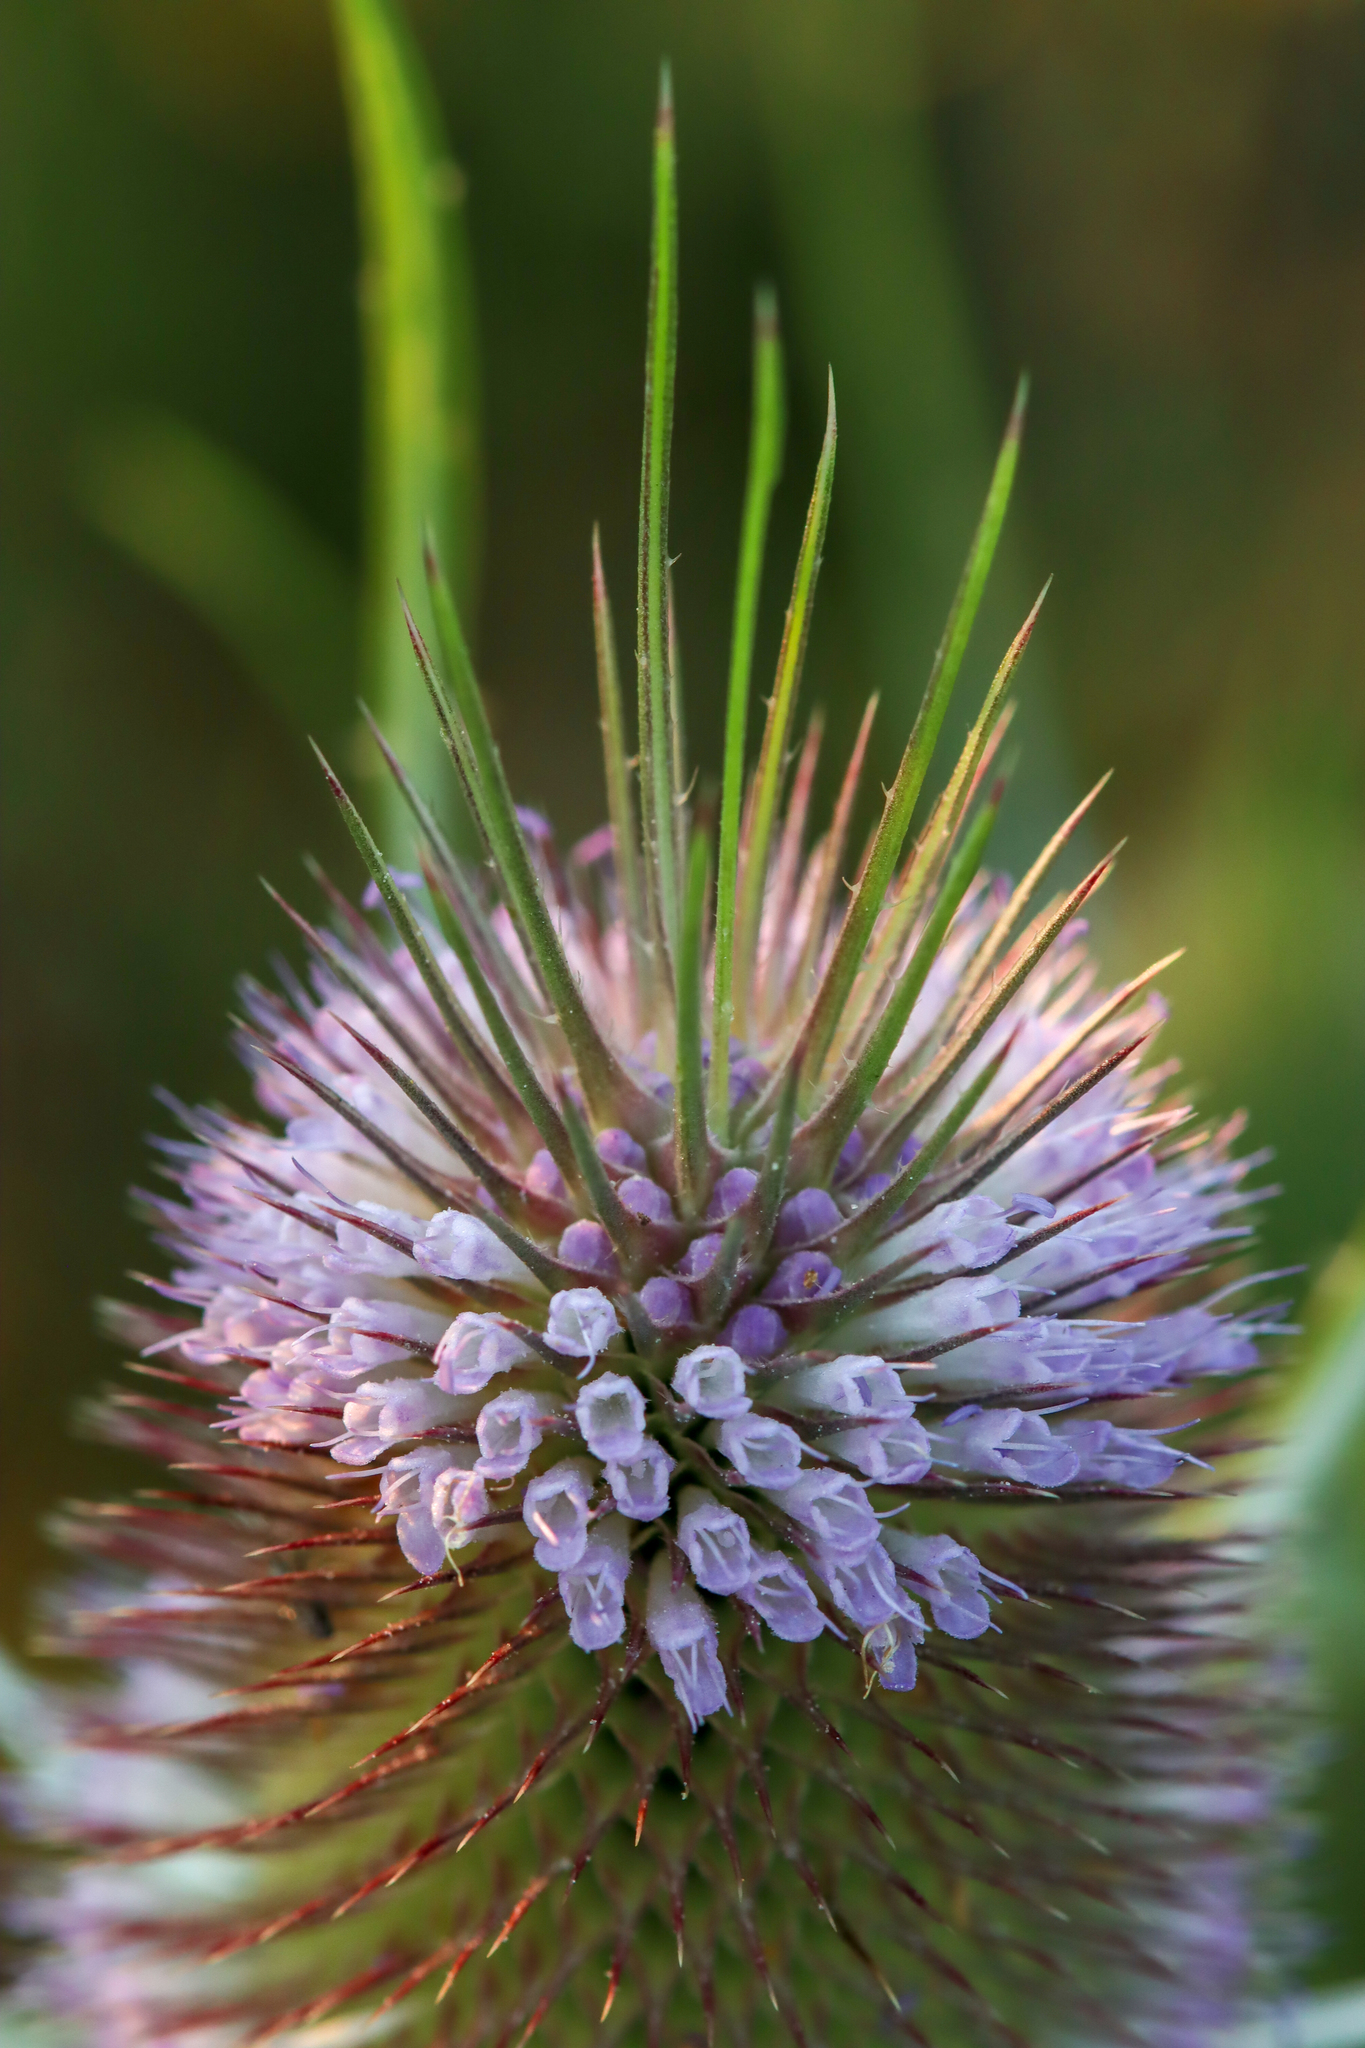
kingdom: Plantae
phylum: Tracheophyta
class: Magnoliopsida
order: Dipsacales
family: Caprifoliaceae
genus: Dipsacus
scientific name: Dipsacus fullonum
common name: Teasel
